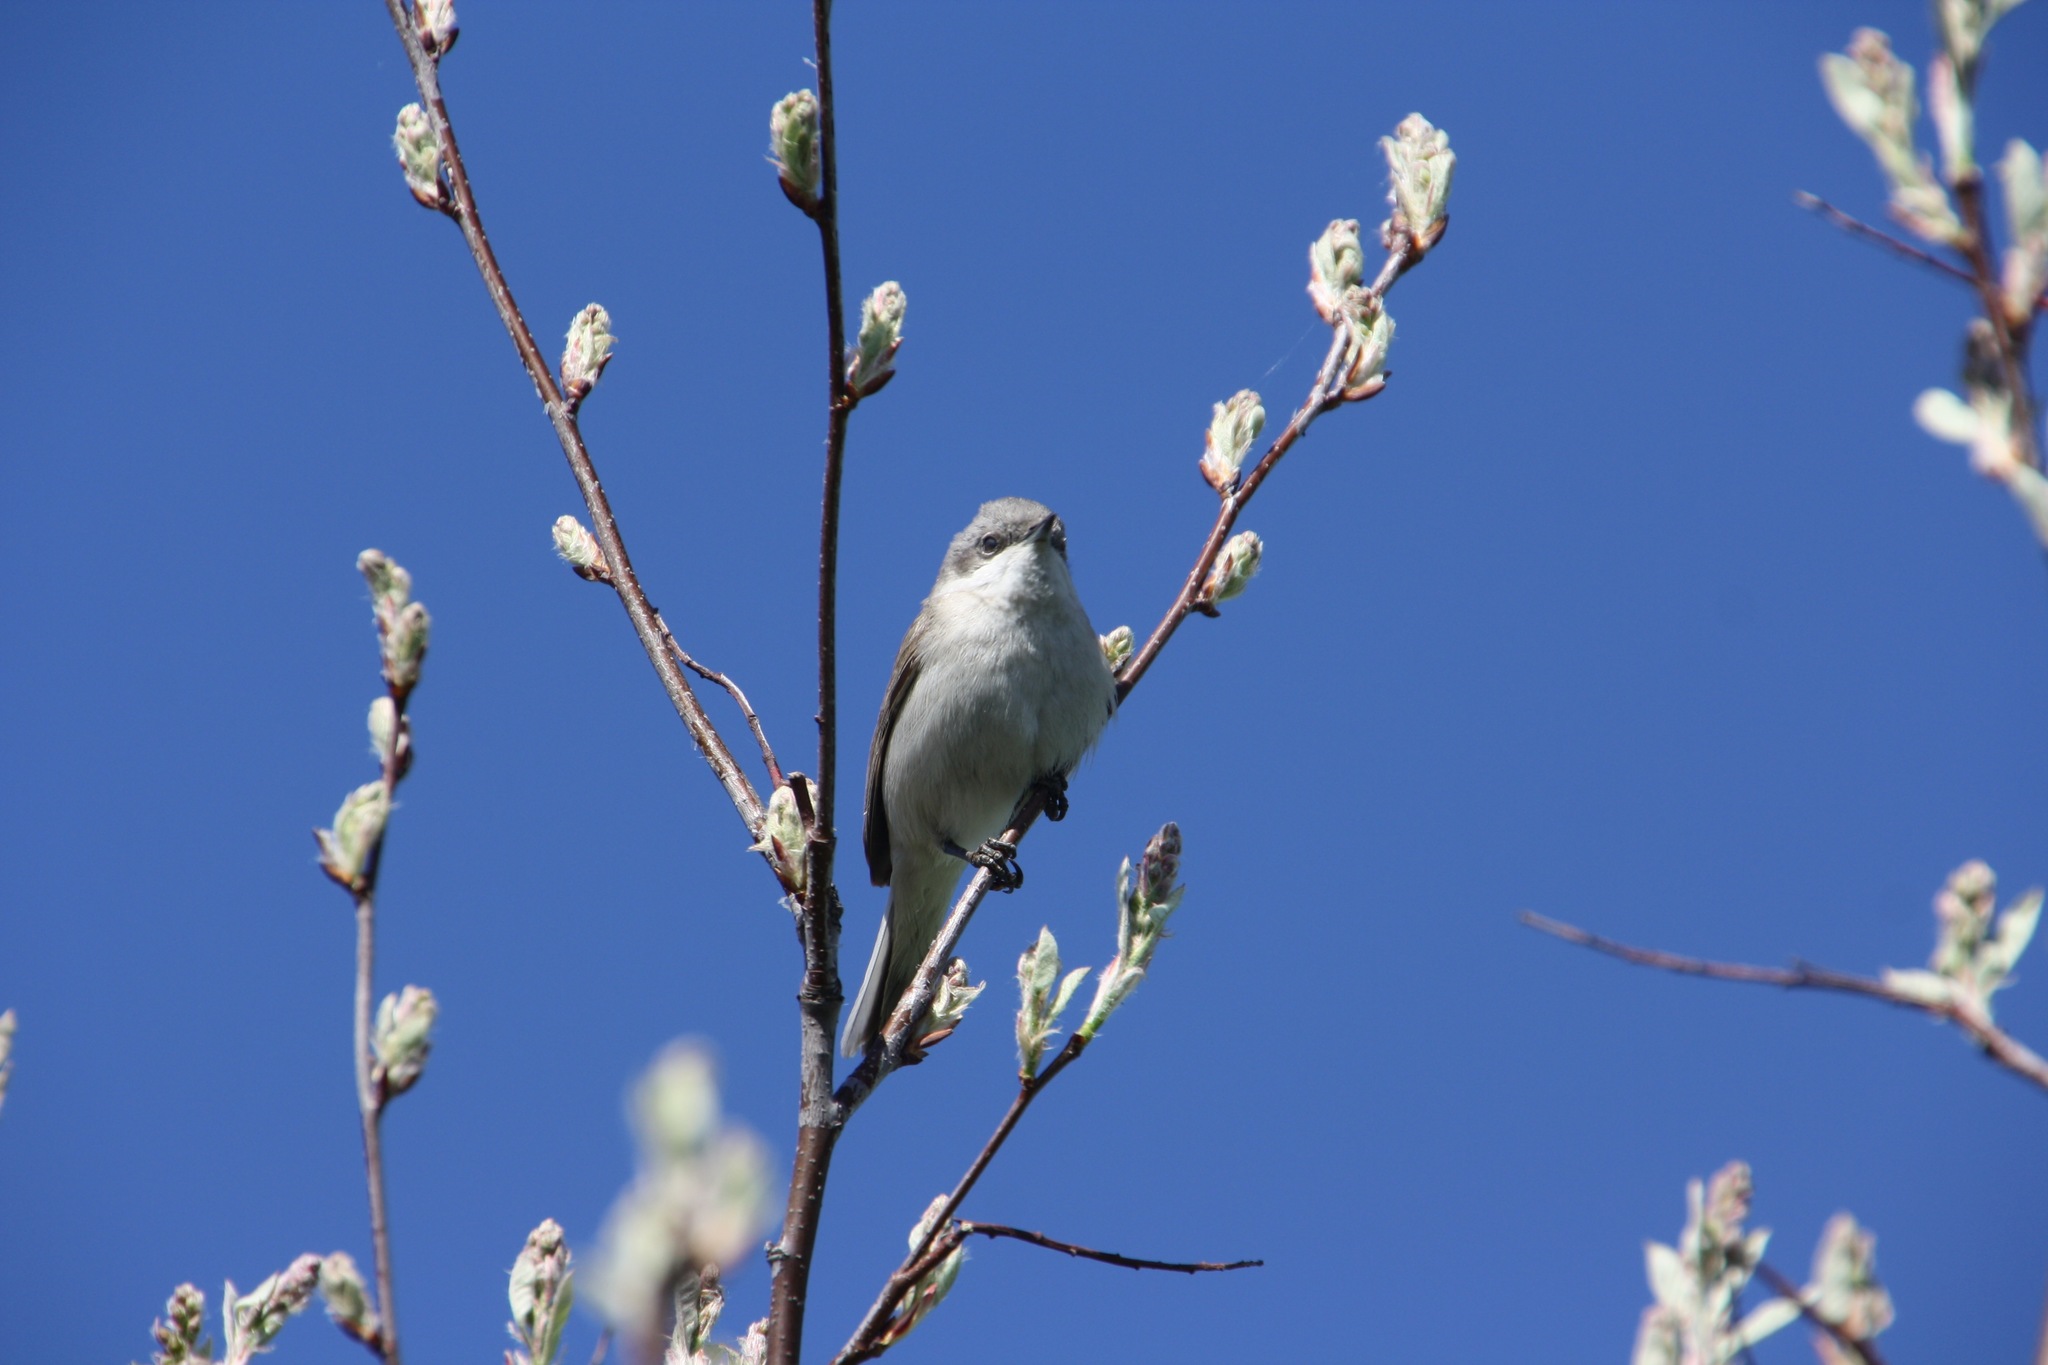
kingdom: Animalia
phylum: Chordata
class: Aves
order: Passeriformes
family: Sylviidae
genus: Sylvia
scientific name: Sylvia curruca
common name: Lesser whitethroat
